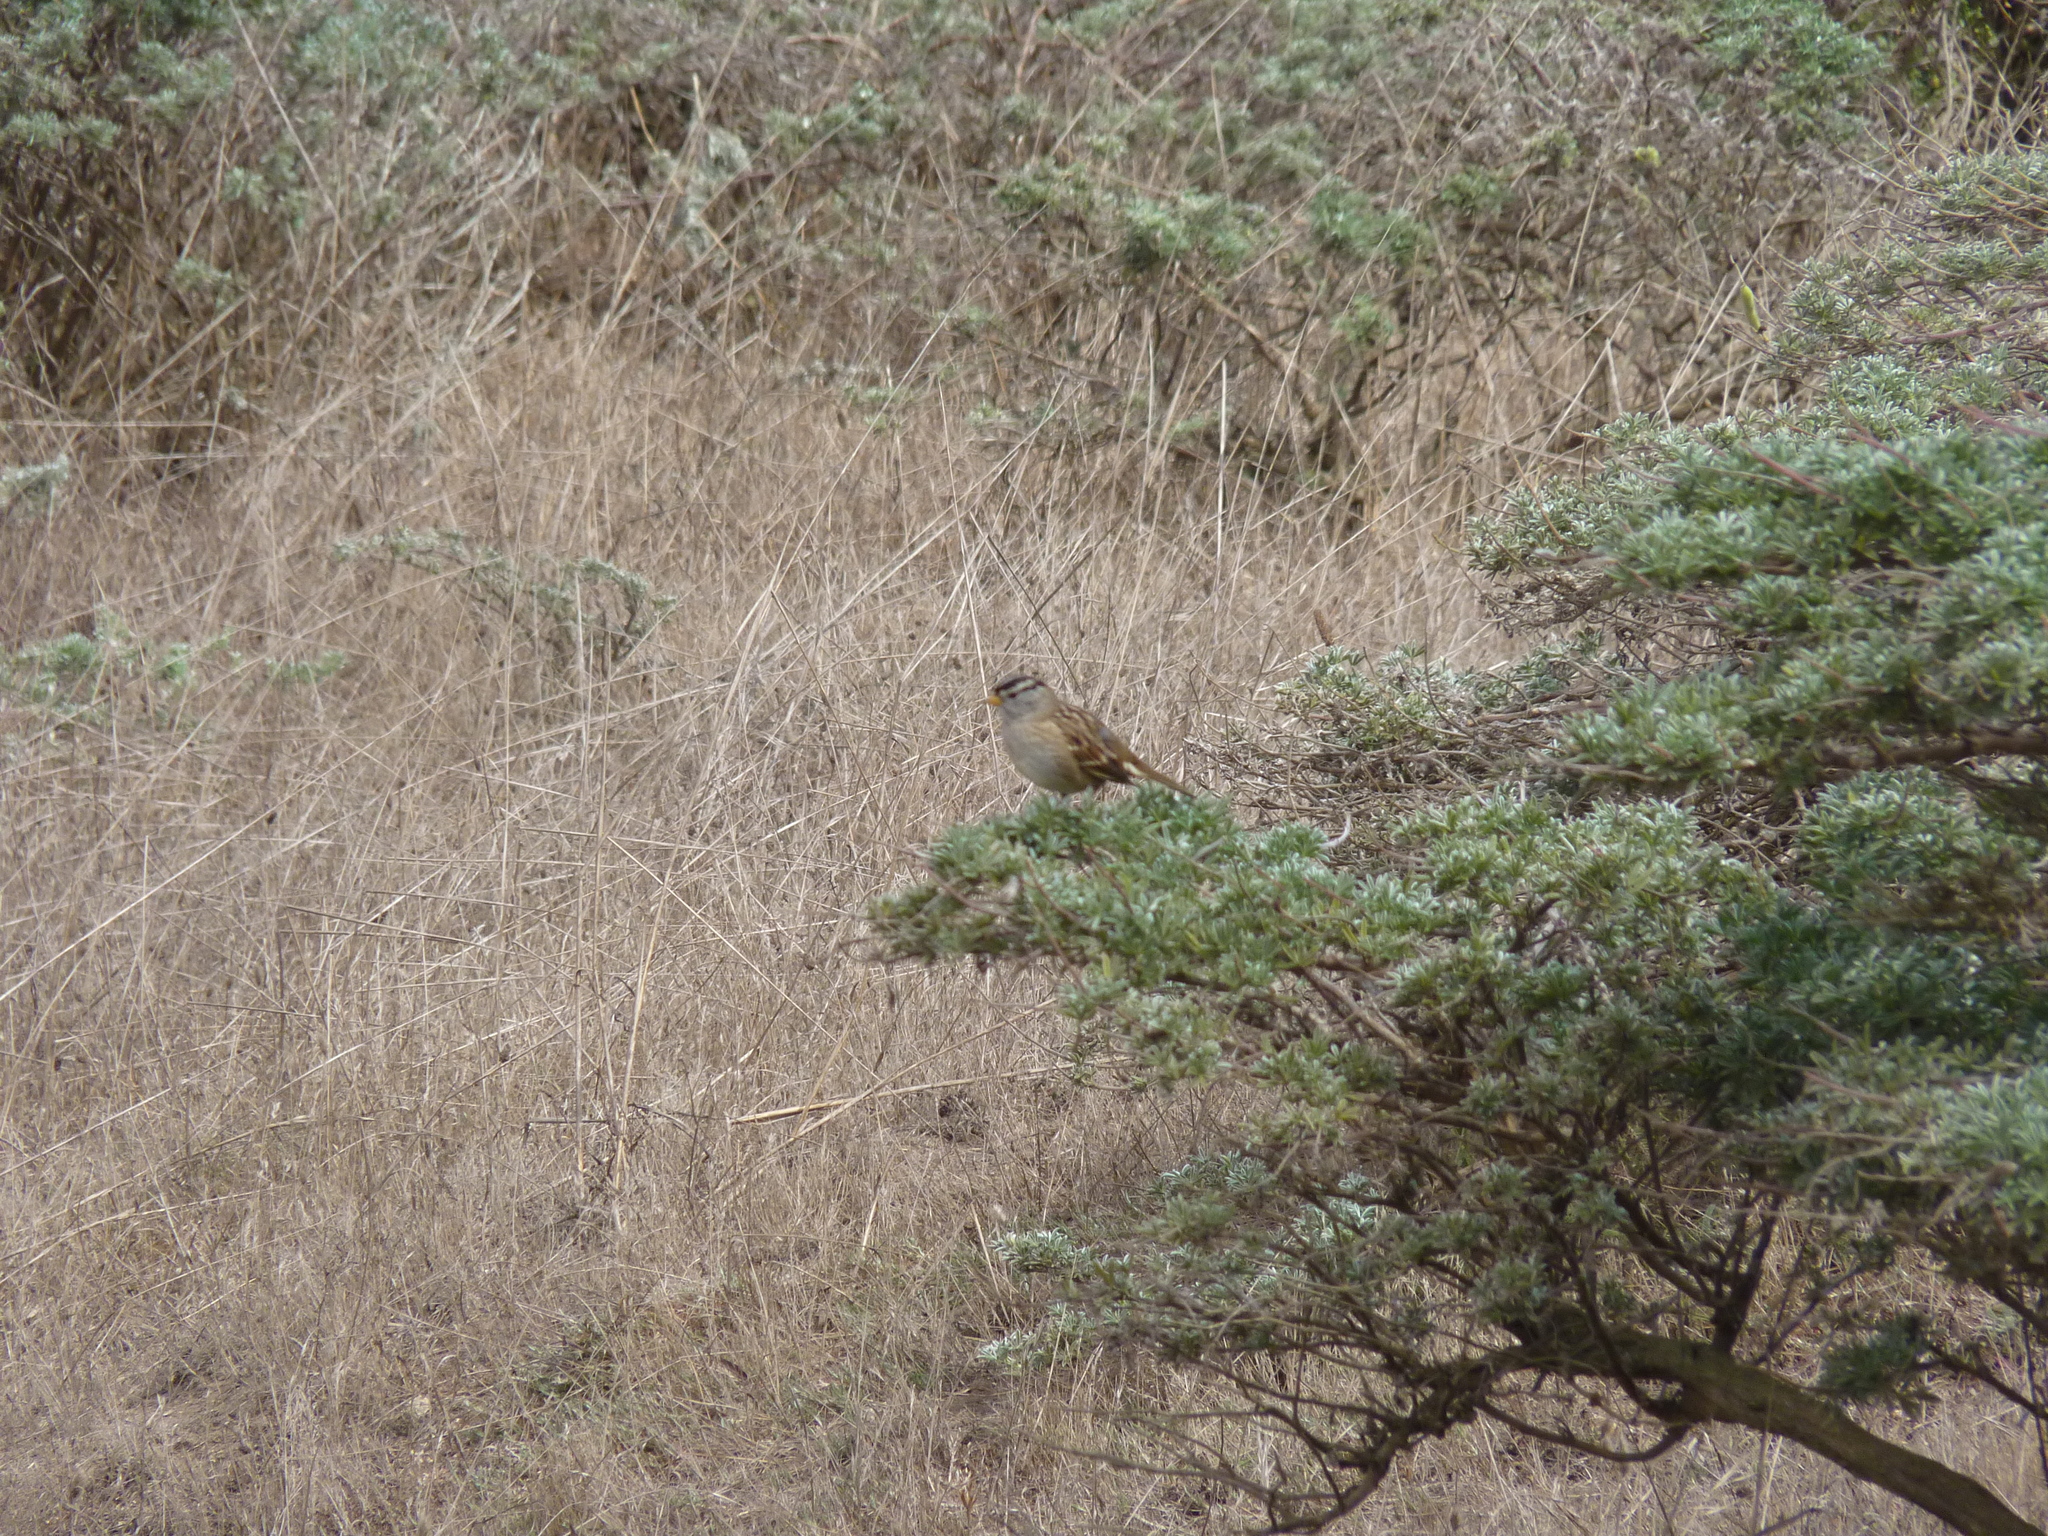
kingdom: Animalia
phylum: Chordata
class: Aves
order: Passeriformes
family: Passerellidae
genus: Zonotrichia
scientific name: Zonotrichia leucophrys
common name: White-crowned sparrow
